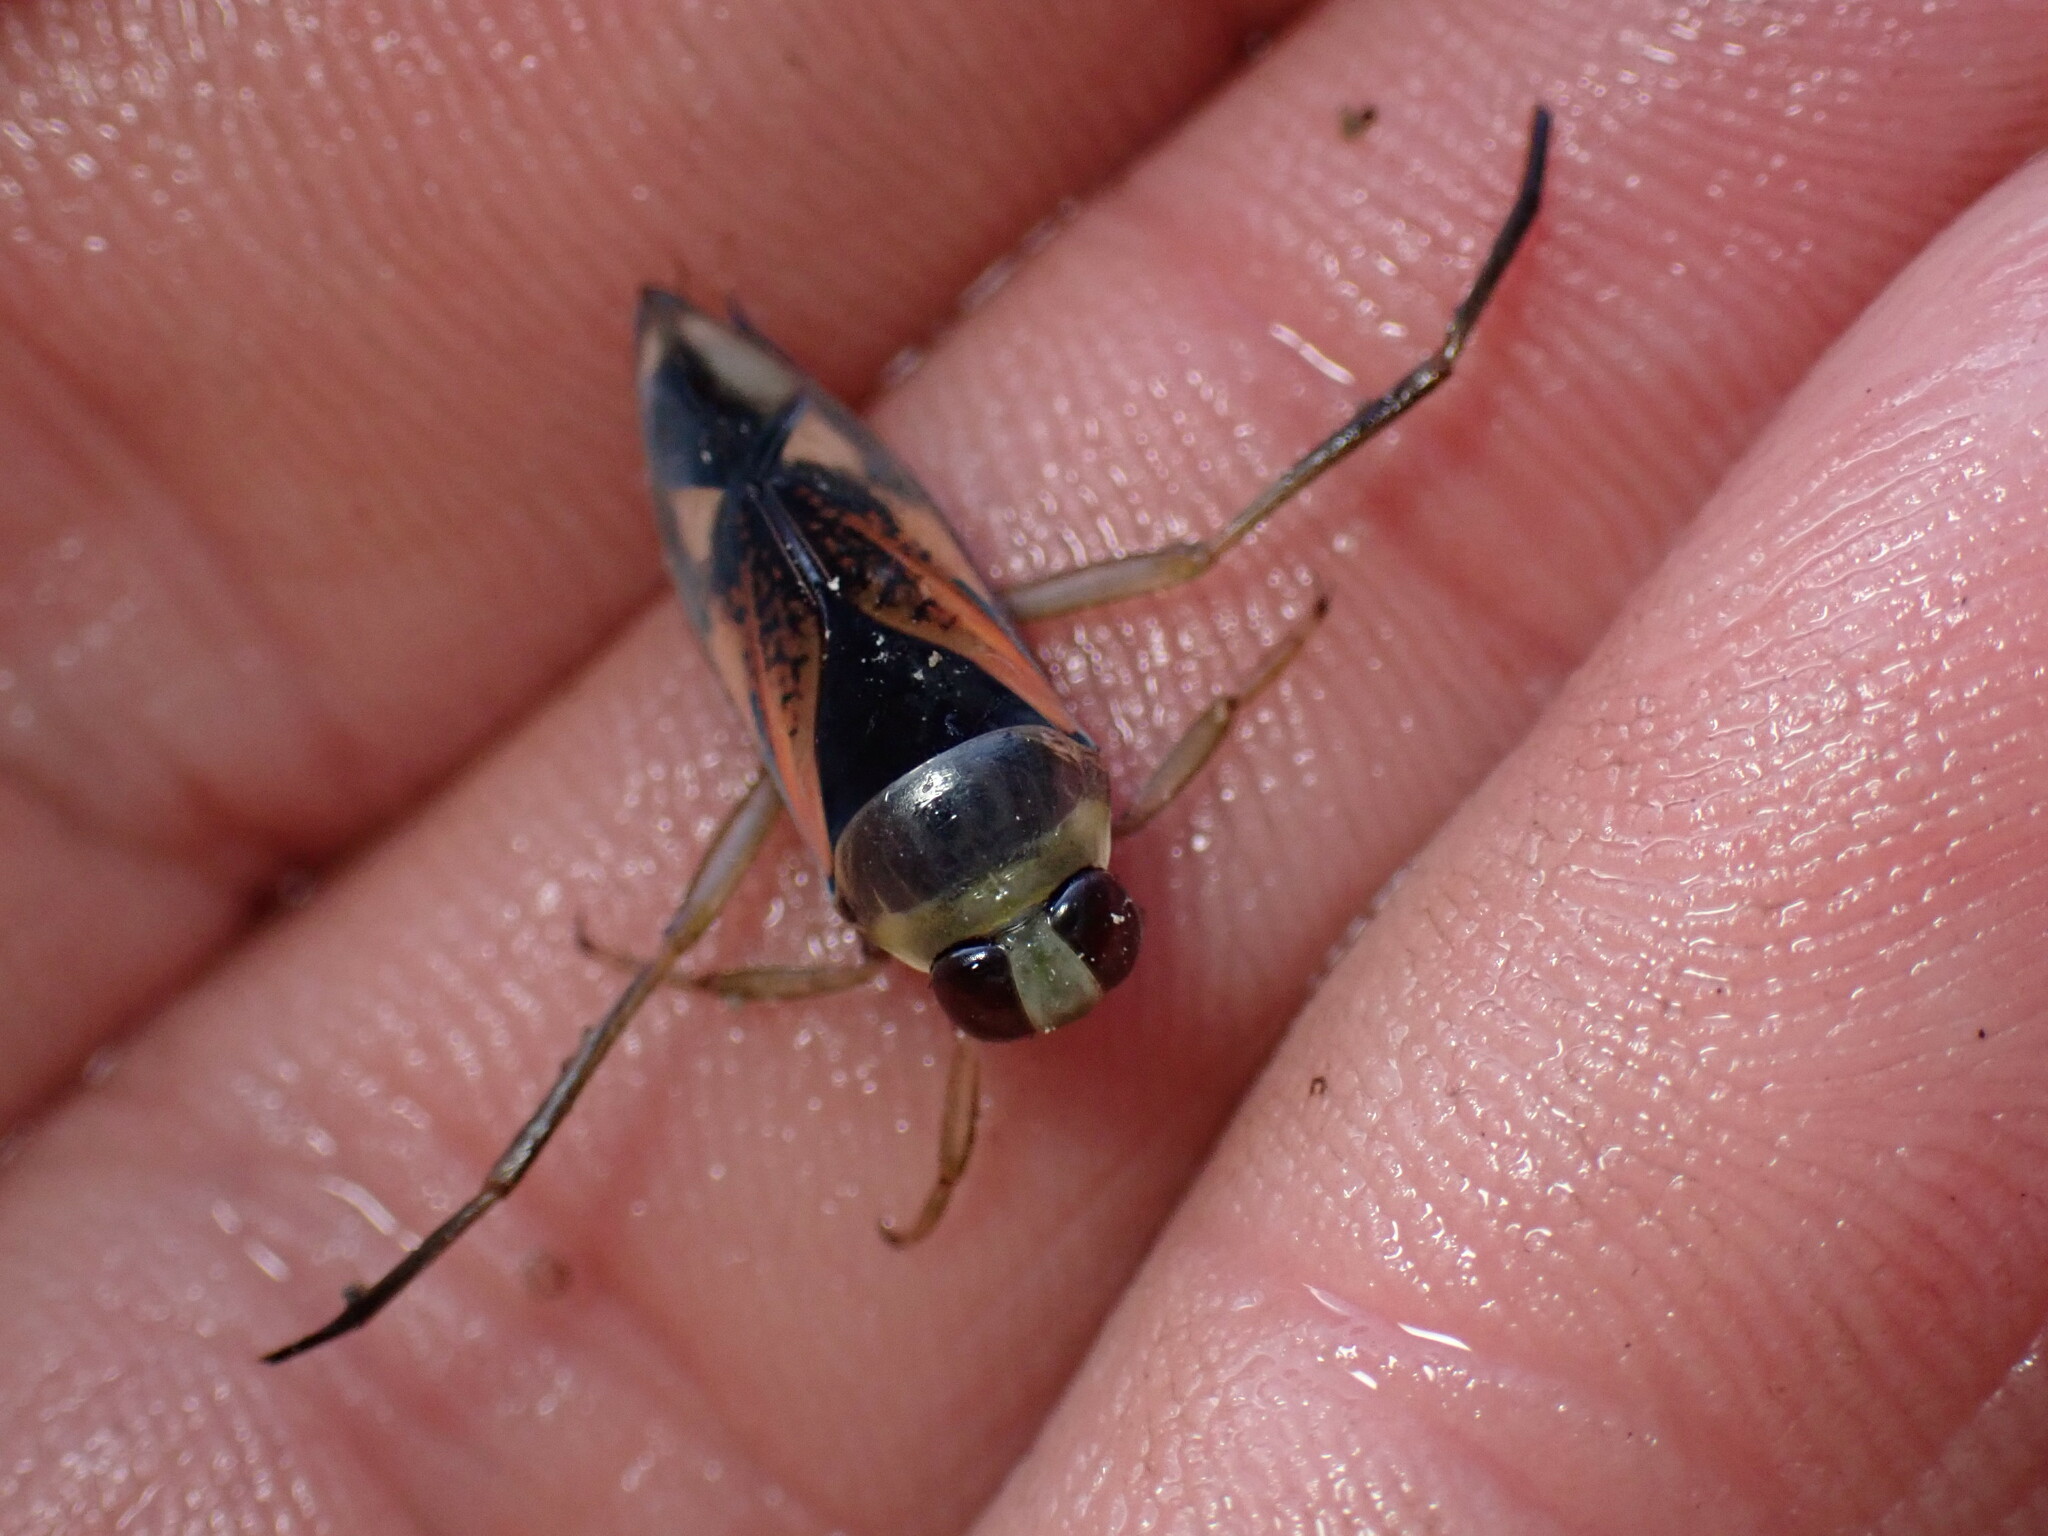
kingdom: Animalia
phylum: Arthropoda
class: Insecta
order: Hemiptera
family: Notonectidae
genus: Notonecta
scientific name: Notonecta kirbyi
